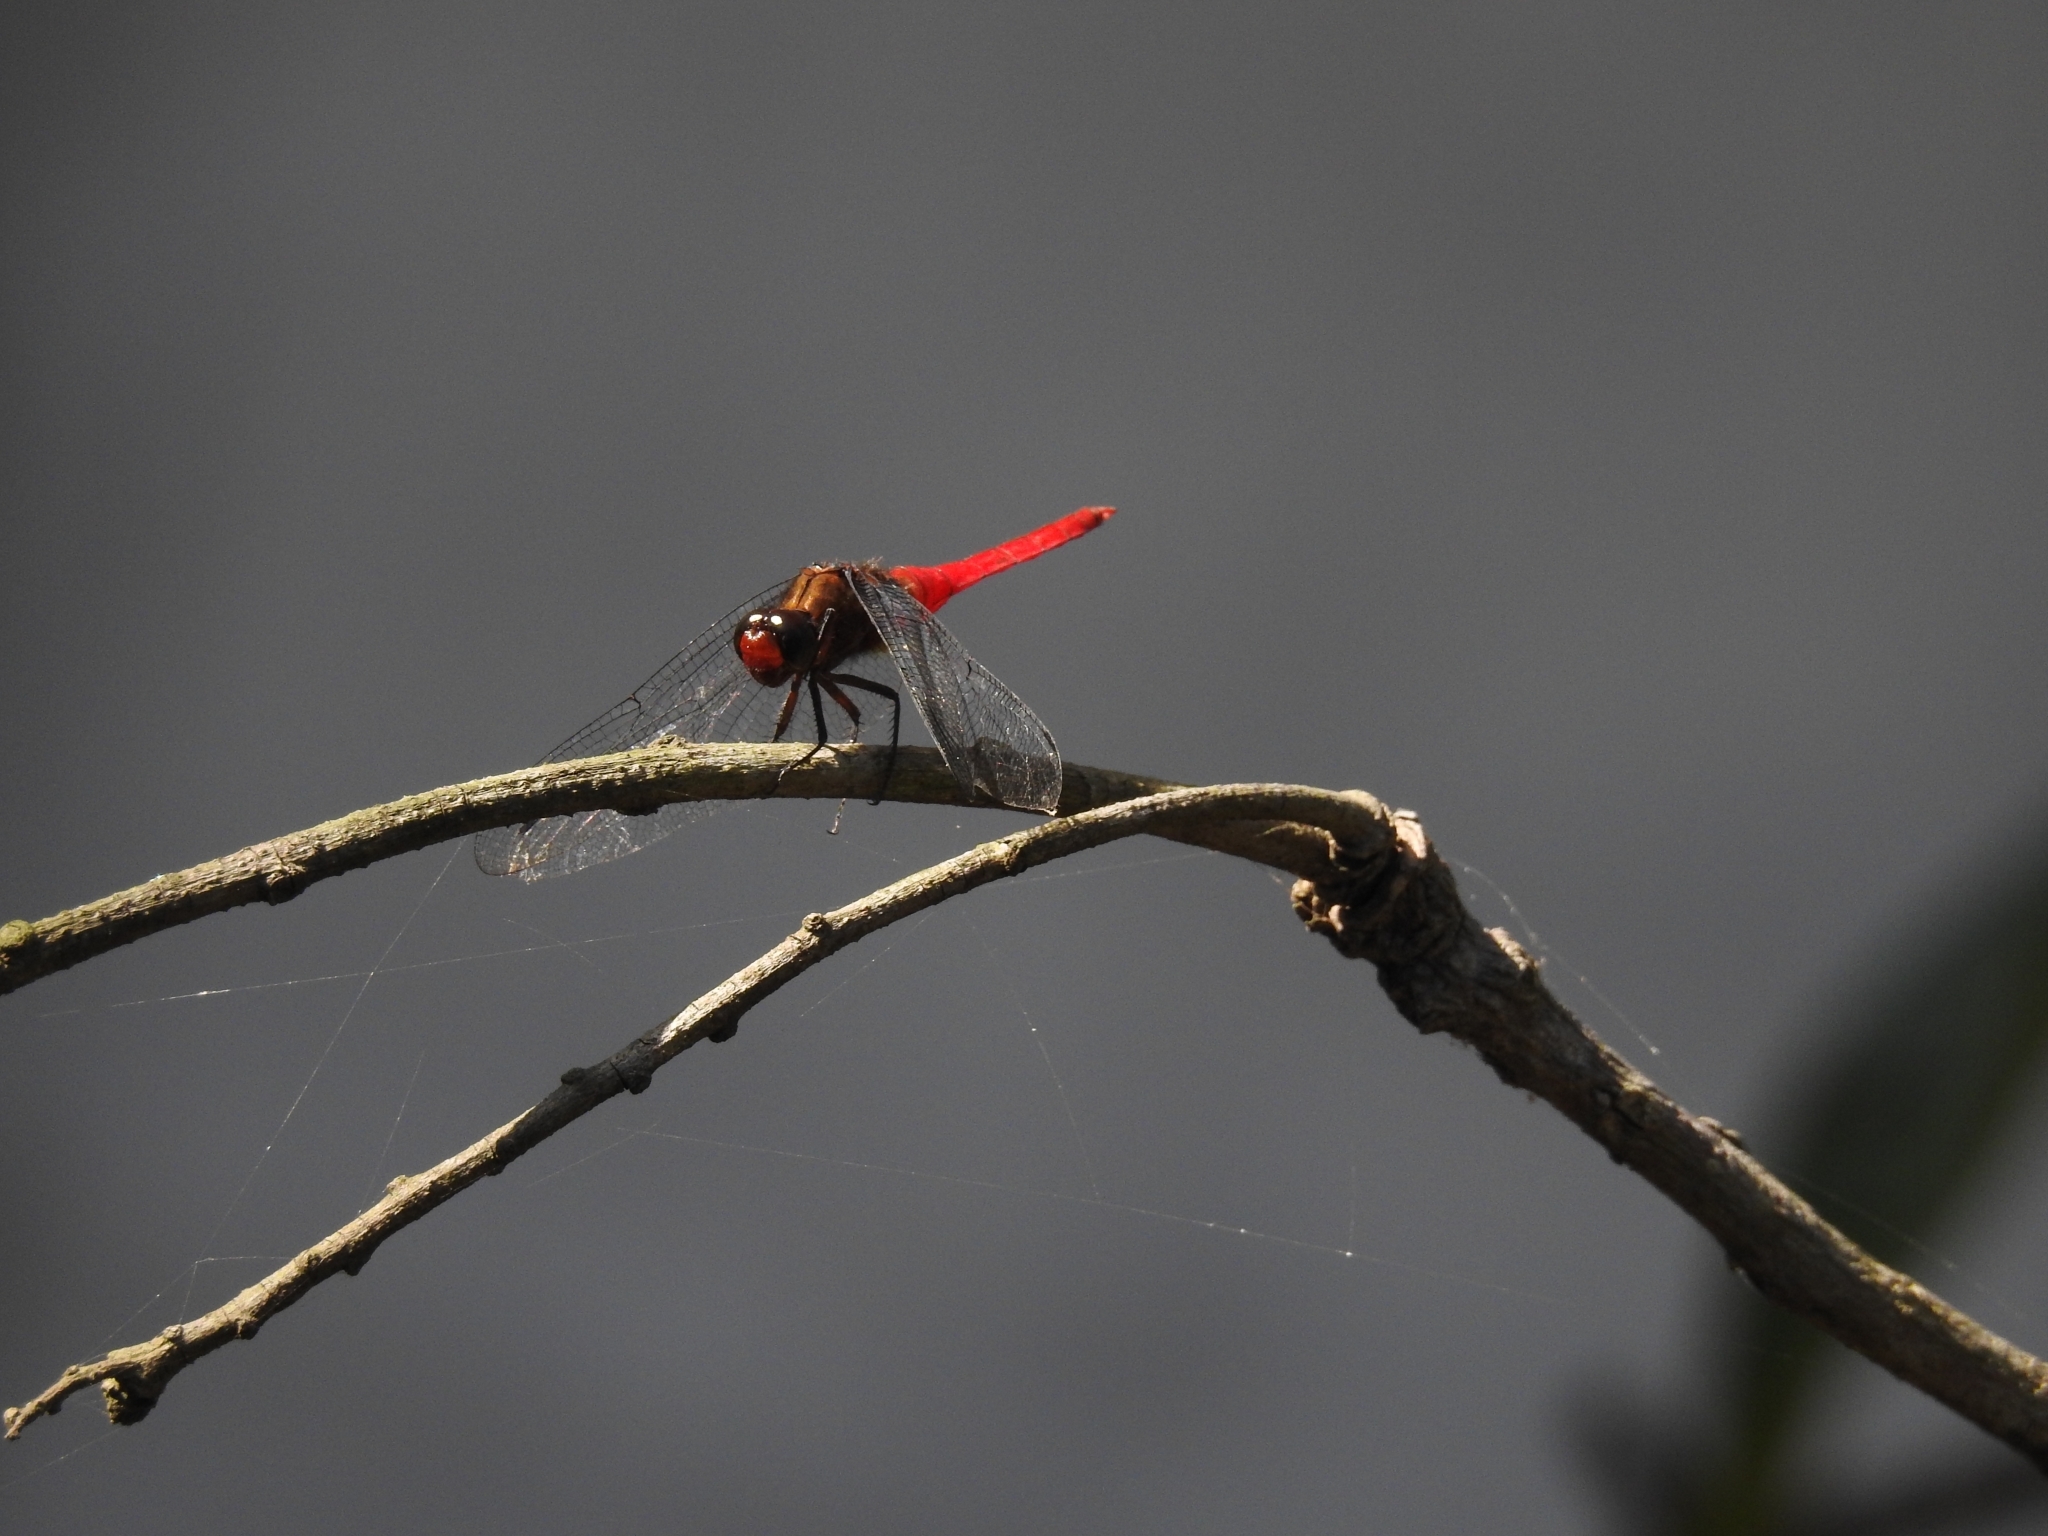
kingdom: Animalia
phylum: Arthropoda
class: Insecta
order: Odonata
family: Libellulidae
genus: Orthetrum
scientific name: Orthetrum chrysis
